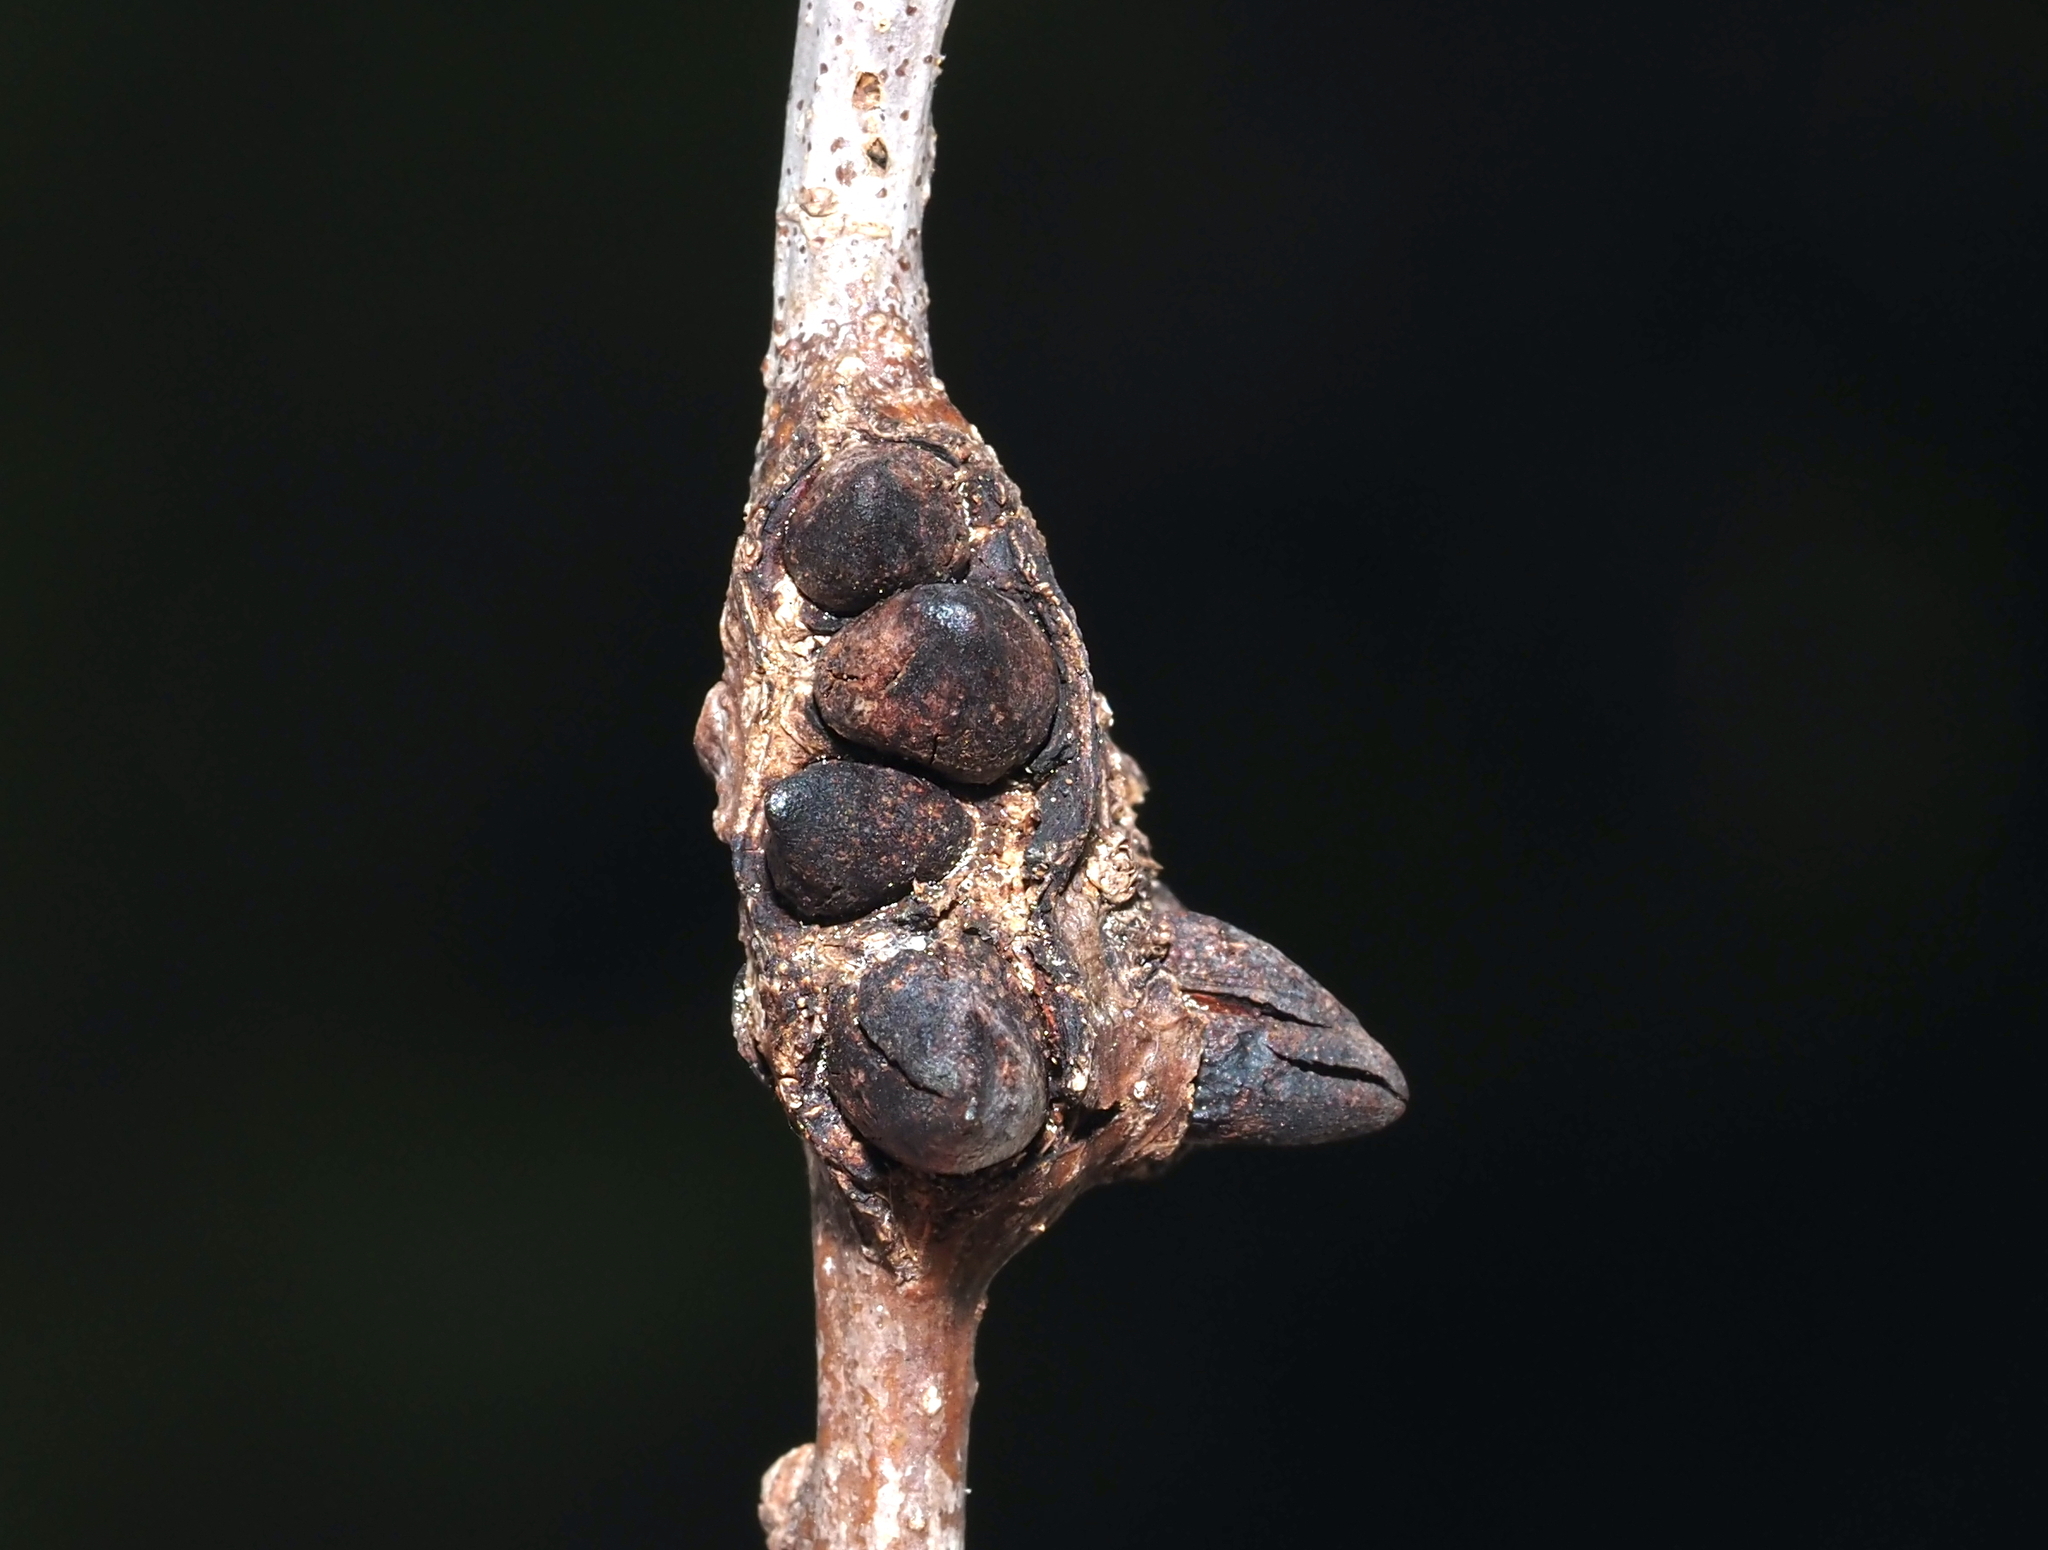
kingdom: Animalia
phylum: Arthropoda
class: Insecta
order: Hymenoptera
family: Cynipidae
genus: Biorhiza
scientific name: Biorhiza
